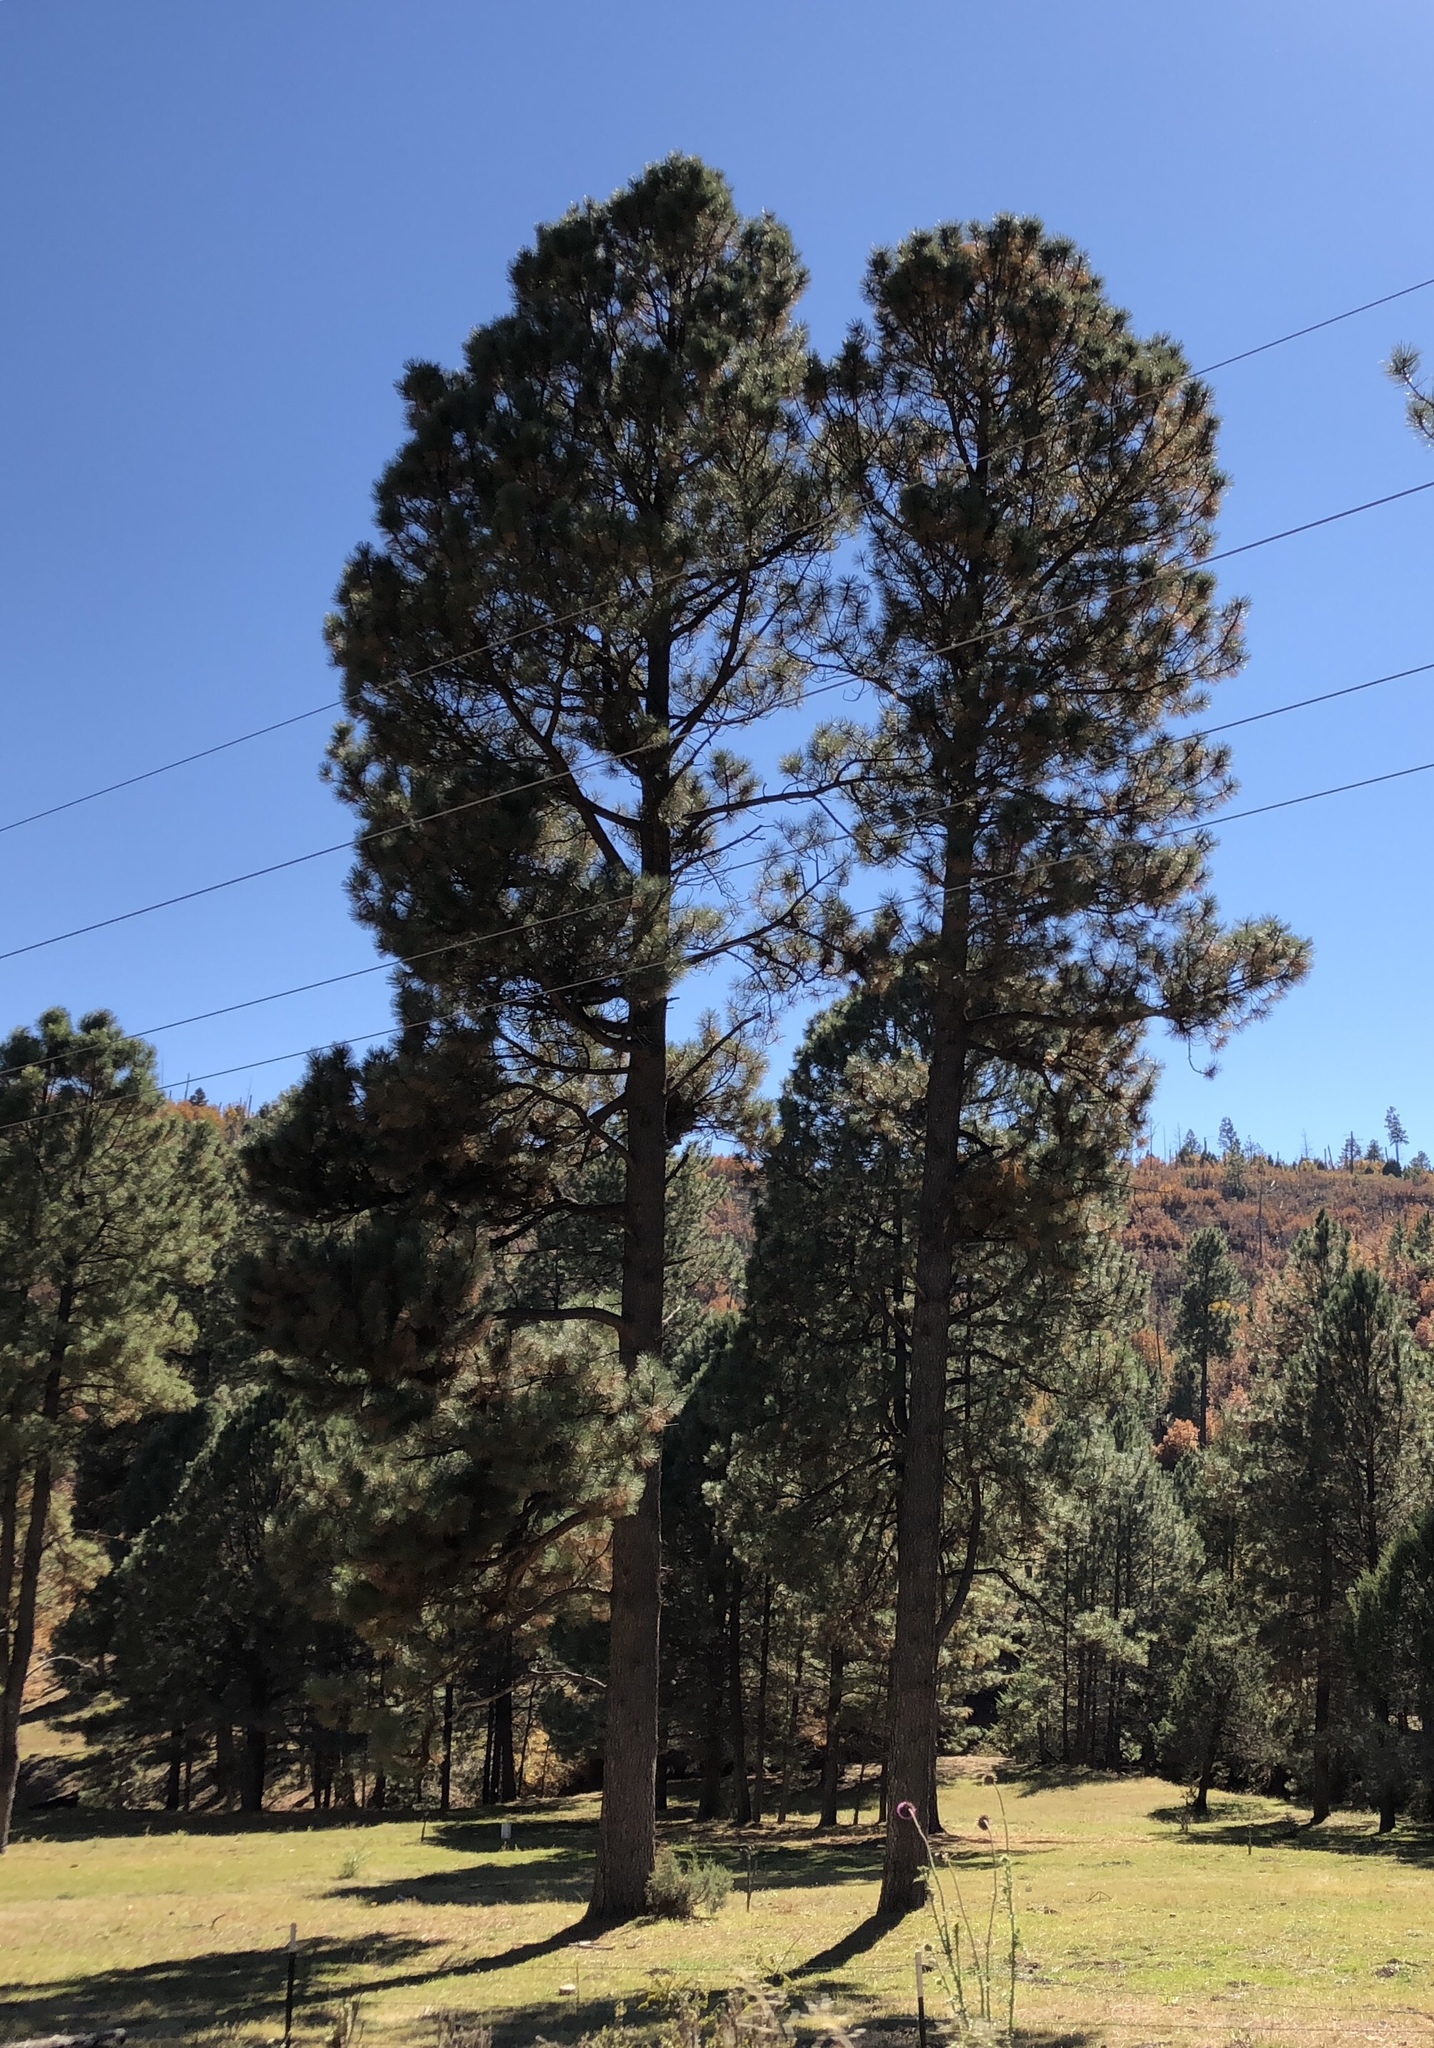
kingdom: Plantae
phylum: Tracheophyta
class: Pinopsida
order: Pinales
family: Pinaceae
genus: Pinus
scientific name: Pinus ponderosa
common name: Western yellow-pine
